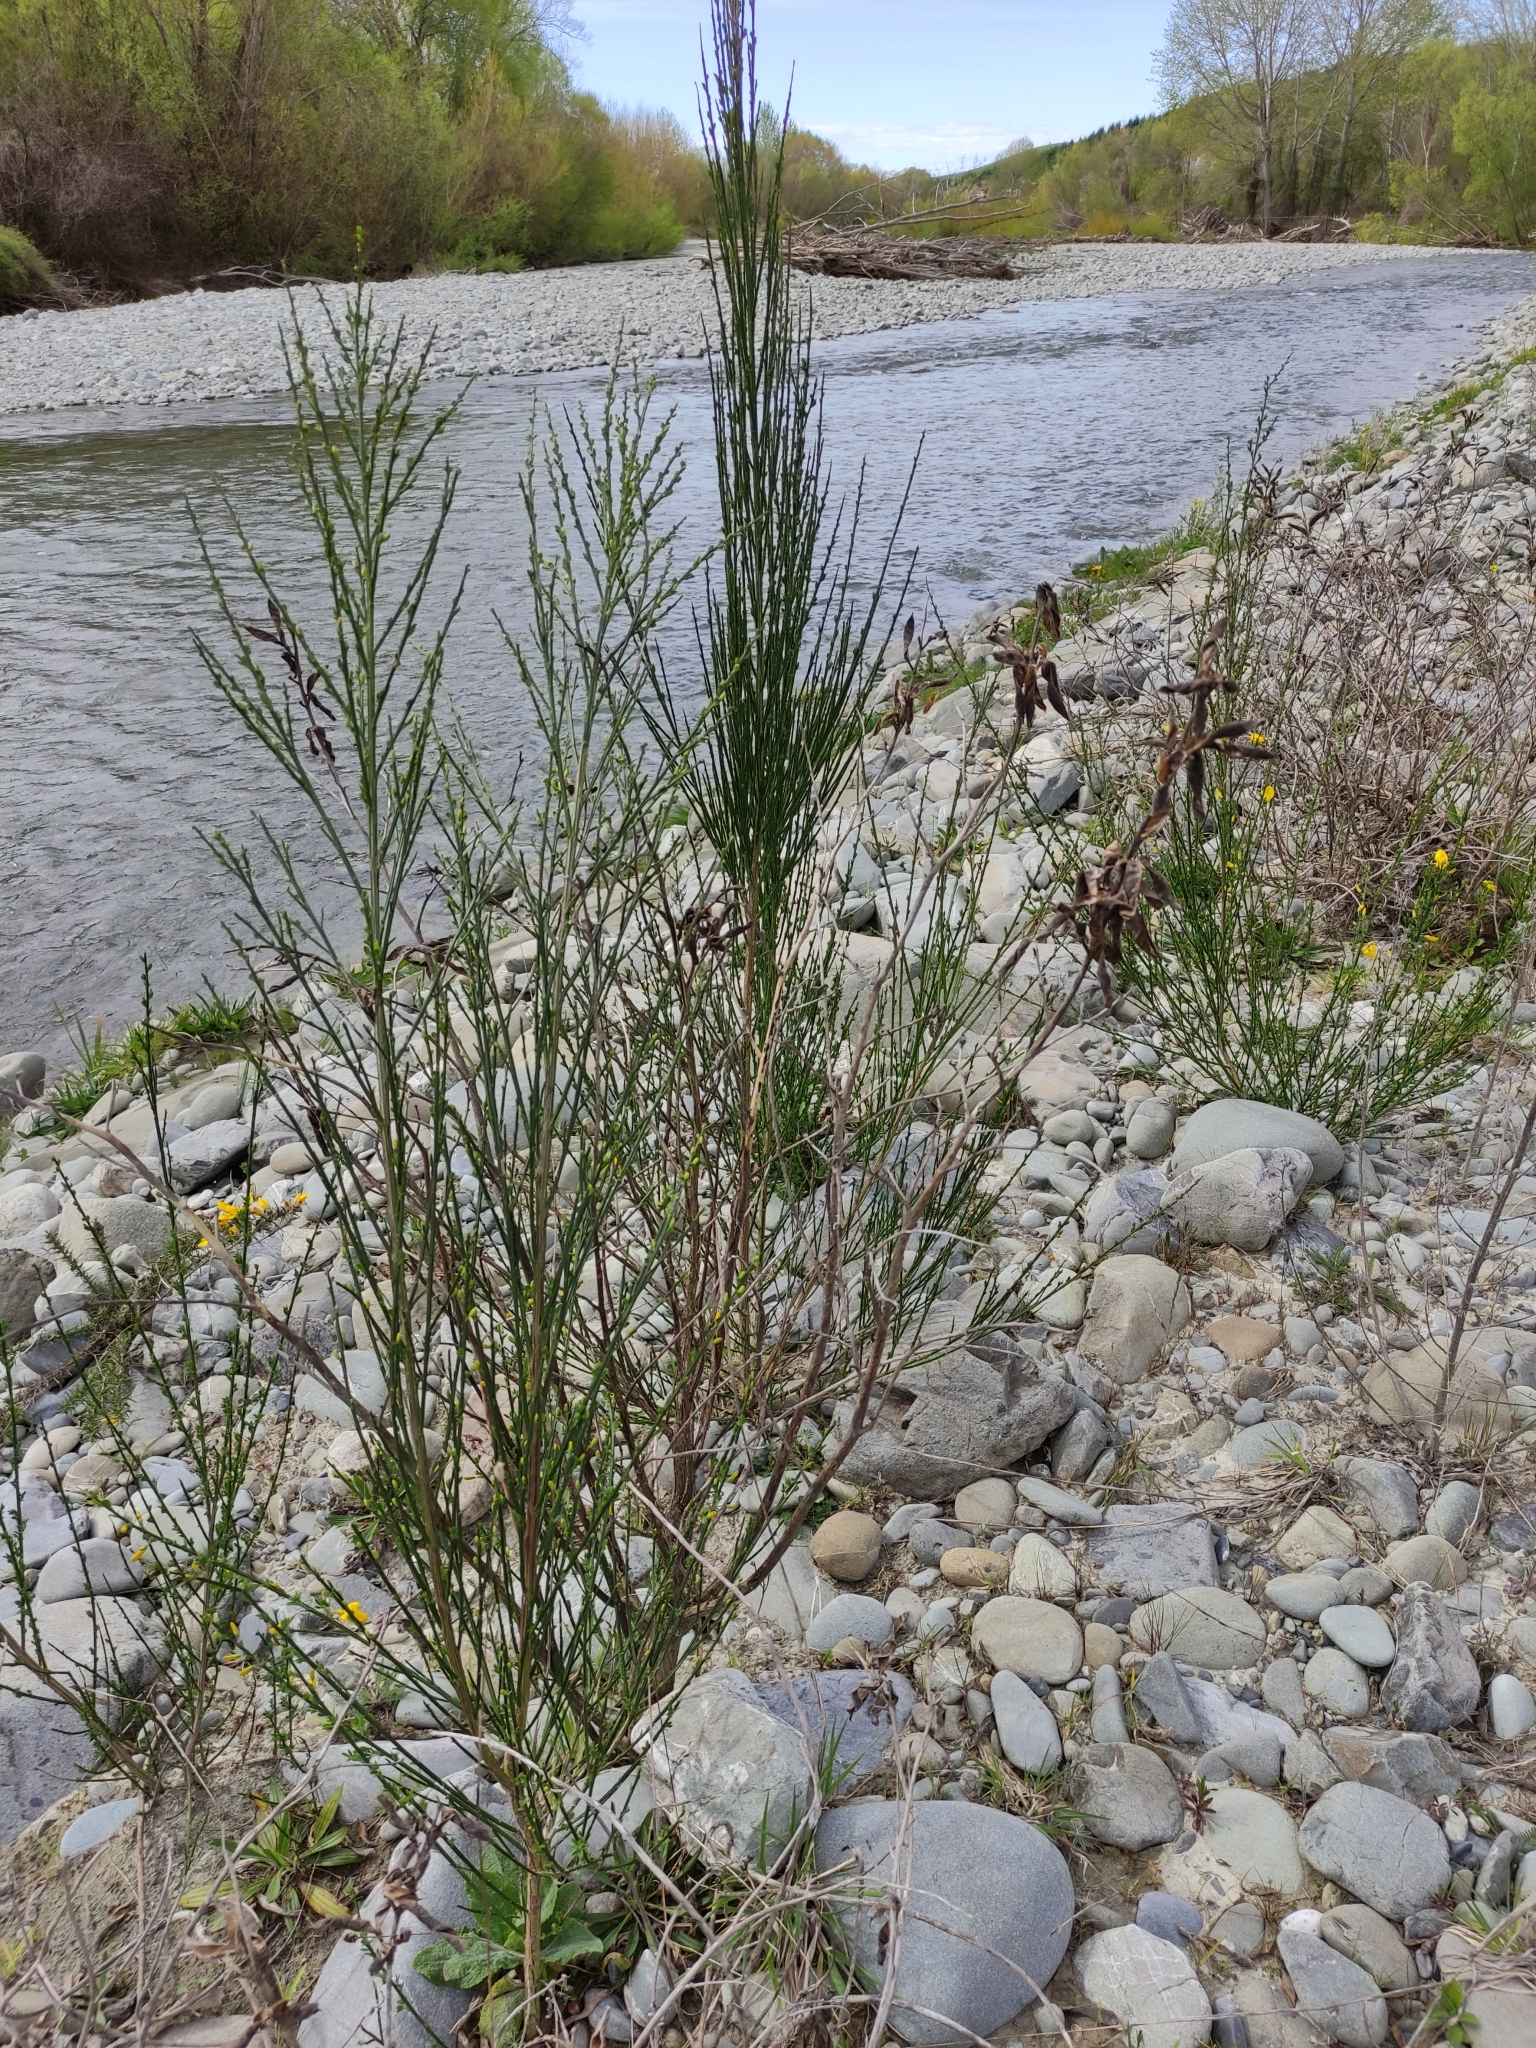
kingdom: Plantae
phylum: Tracheophyta
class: Magnoliopsida
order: Fabales
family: Fabaceae
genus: Cytisus
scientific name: Cytisus scoparius
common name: Scotch broom
